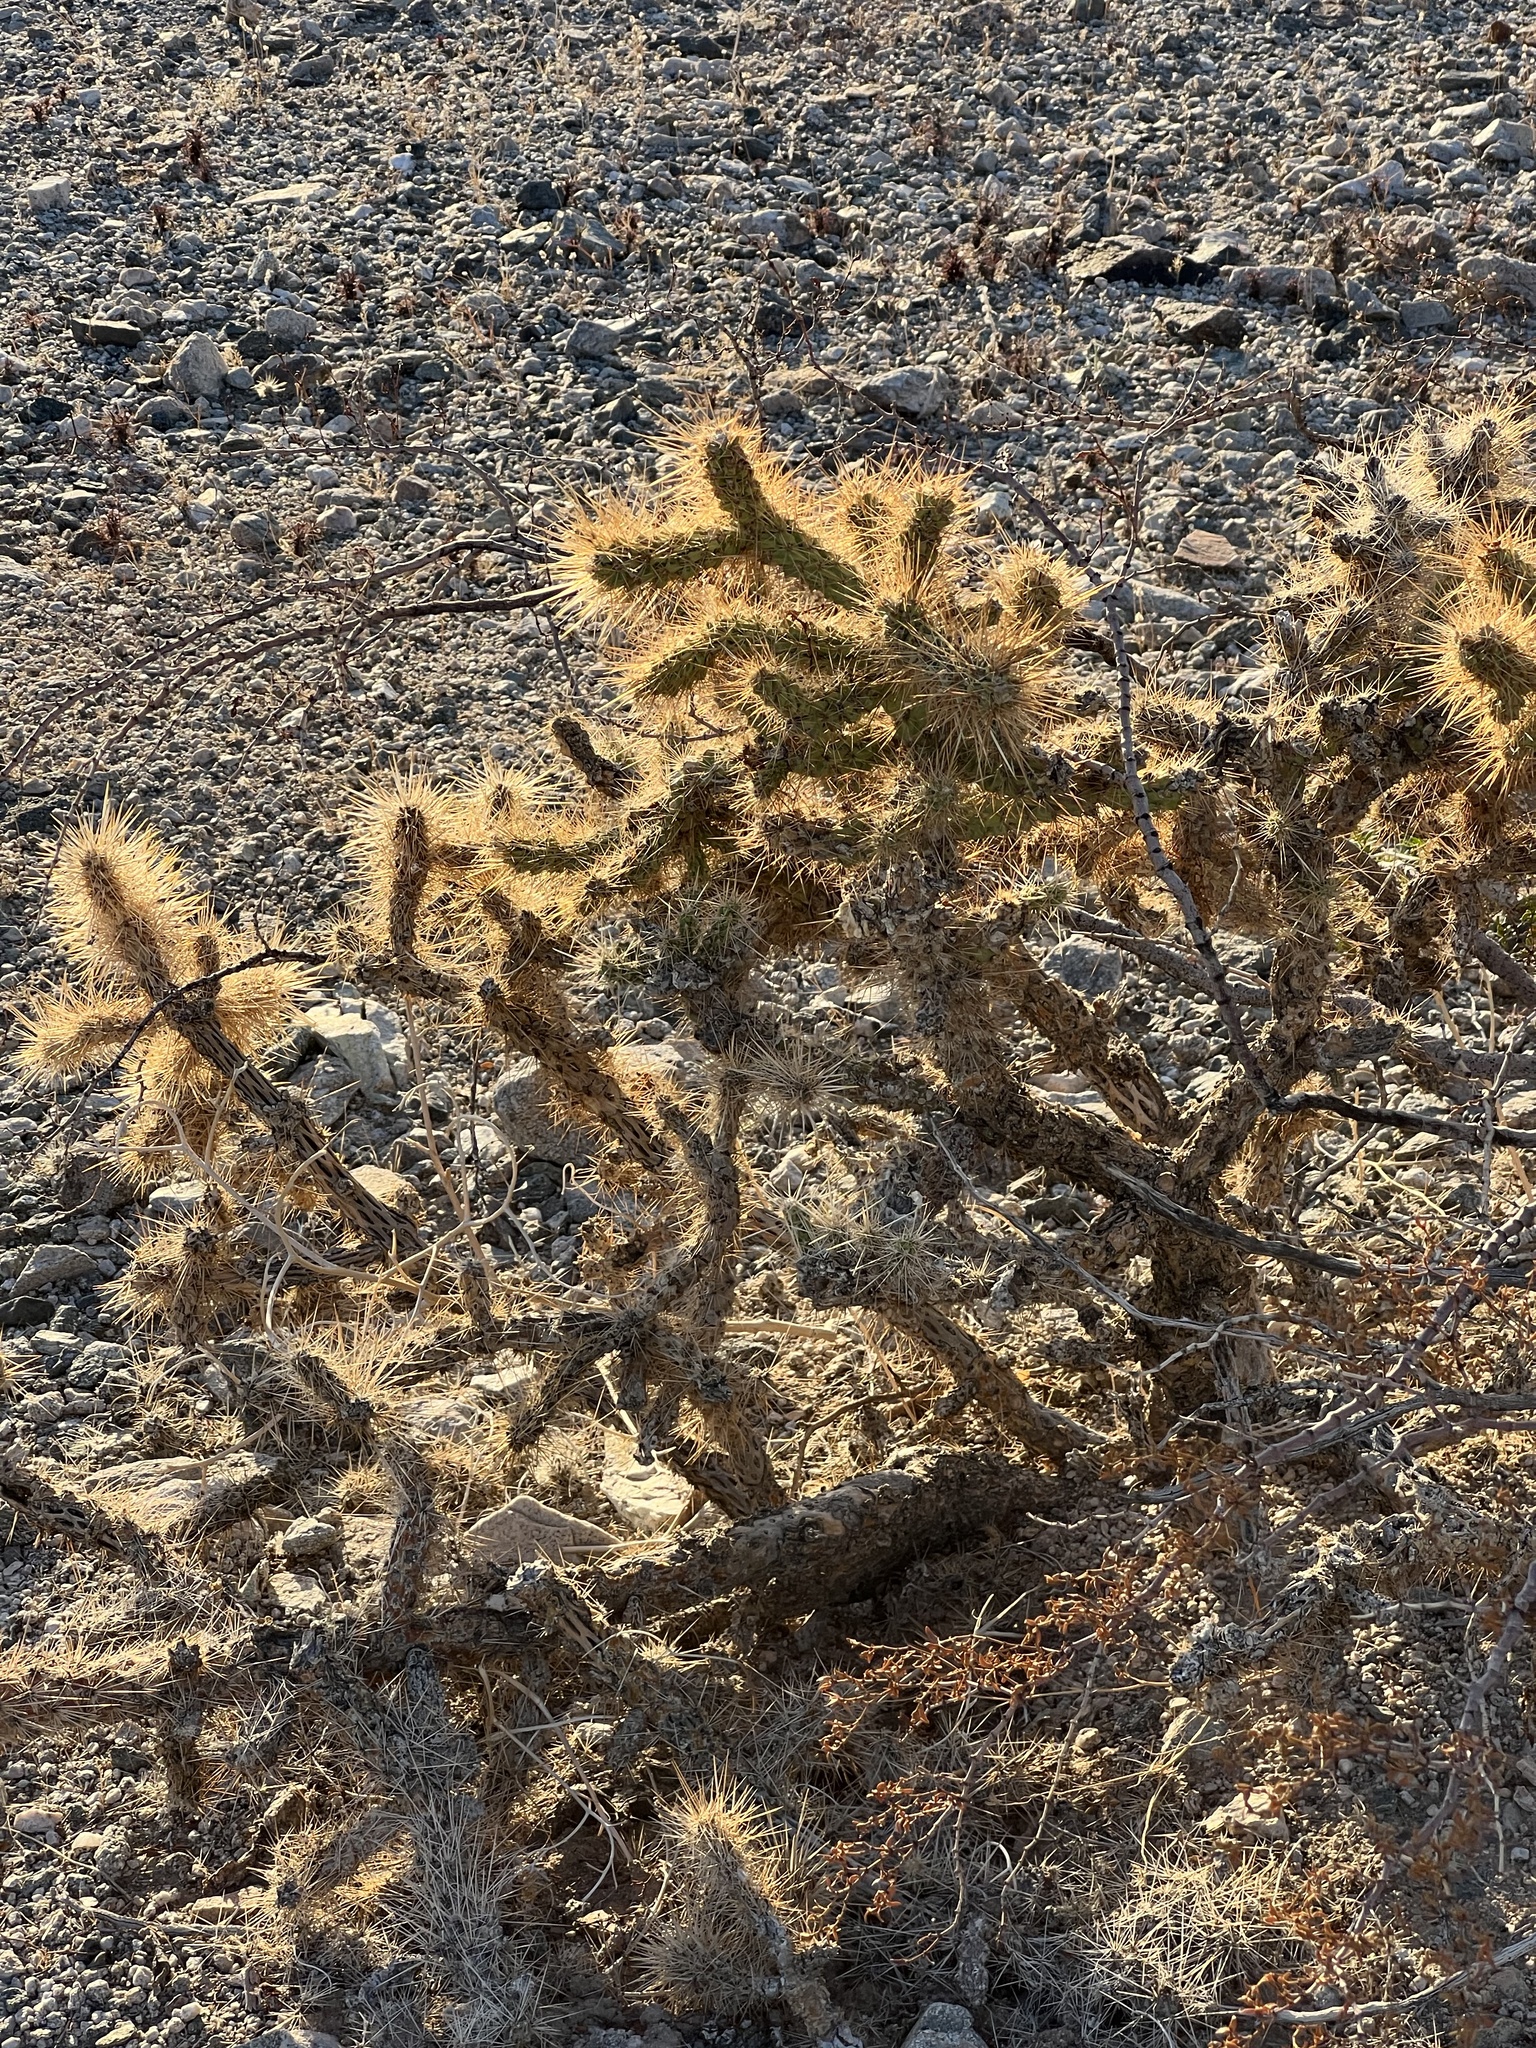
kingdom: Plantae
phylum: Tracheophyta
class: Magnoliopsida
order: Caryophyllales
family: Cactaceae
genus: Cylindropuntia
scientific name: Cylindropuntia echinocarpa
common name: Ground cholla
